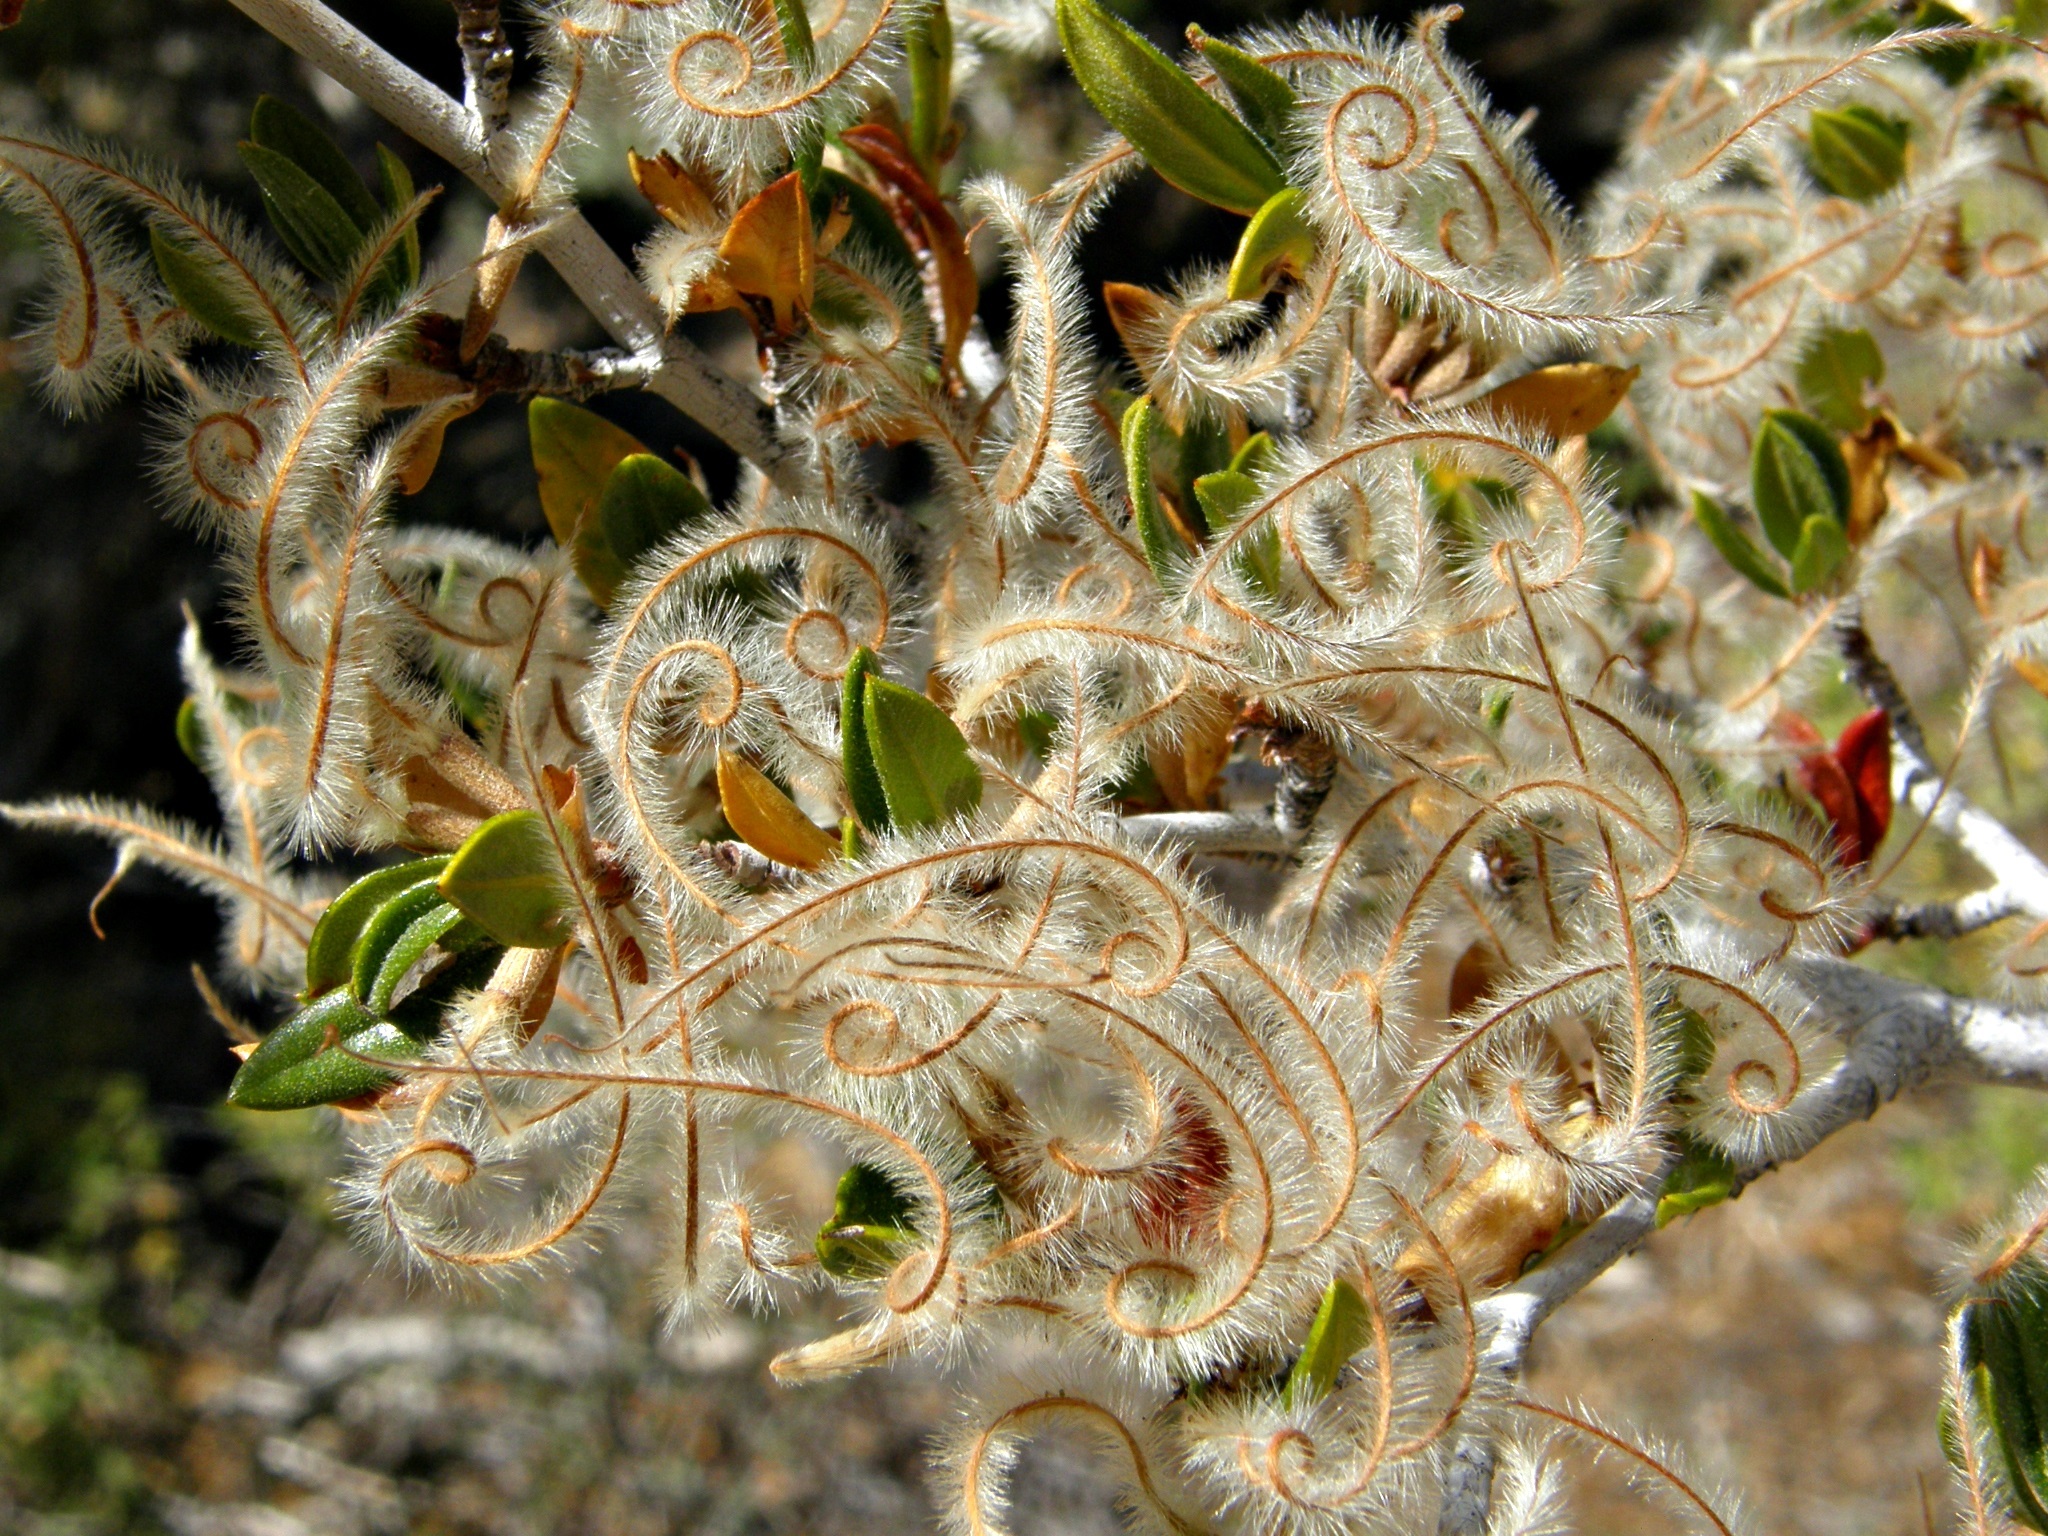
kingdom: Plantae
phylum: Tracheophyta
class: Magnoliopsida
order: Rosales
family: Rosaceae
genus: Cercocarpus
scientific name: Cercocarpus ledifolius
